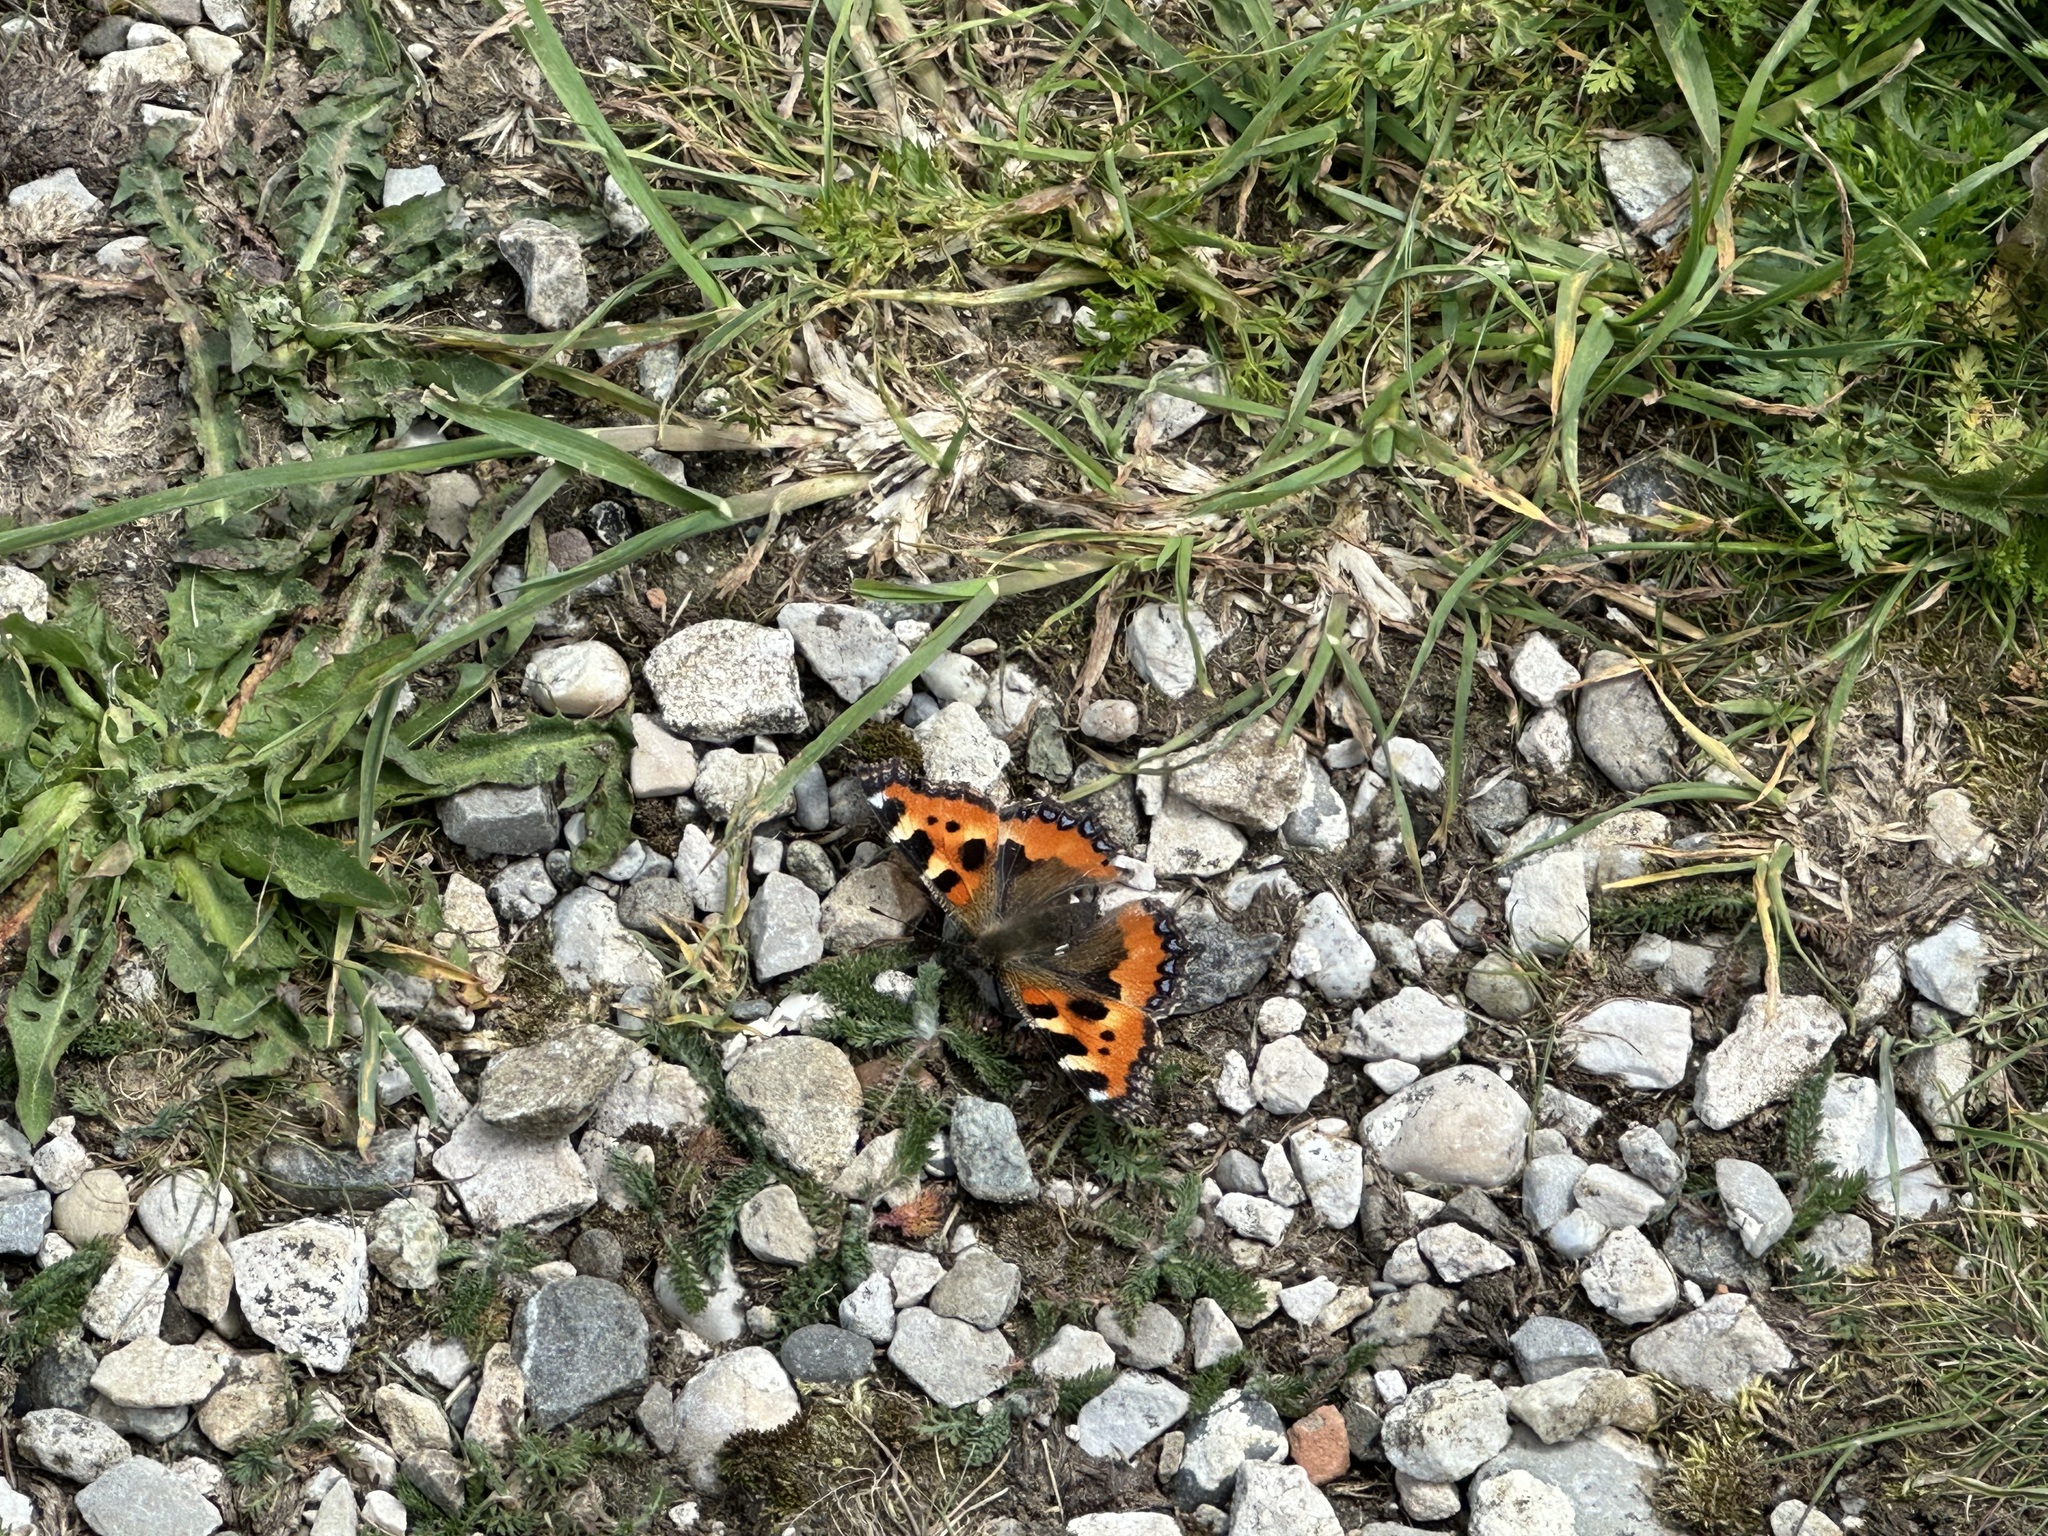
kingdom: Animalia
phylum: Arthropoda
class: Insecta
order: Lepidoptera
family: Nymphalidae
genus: Aglais
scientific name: Aglais urticae
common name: Small tortoiseshell
